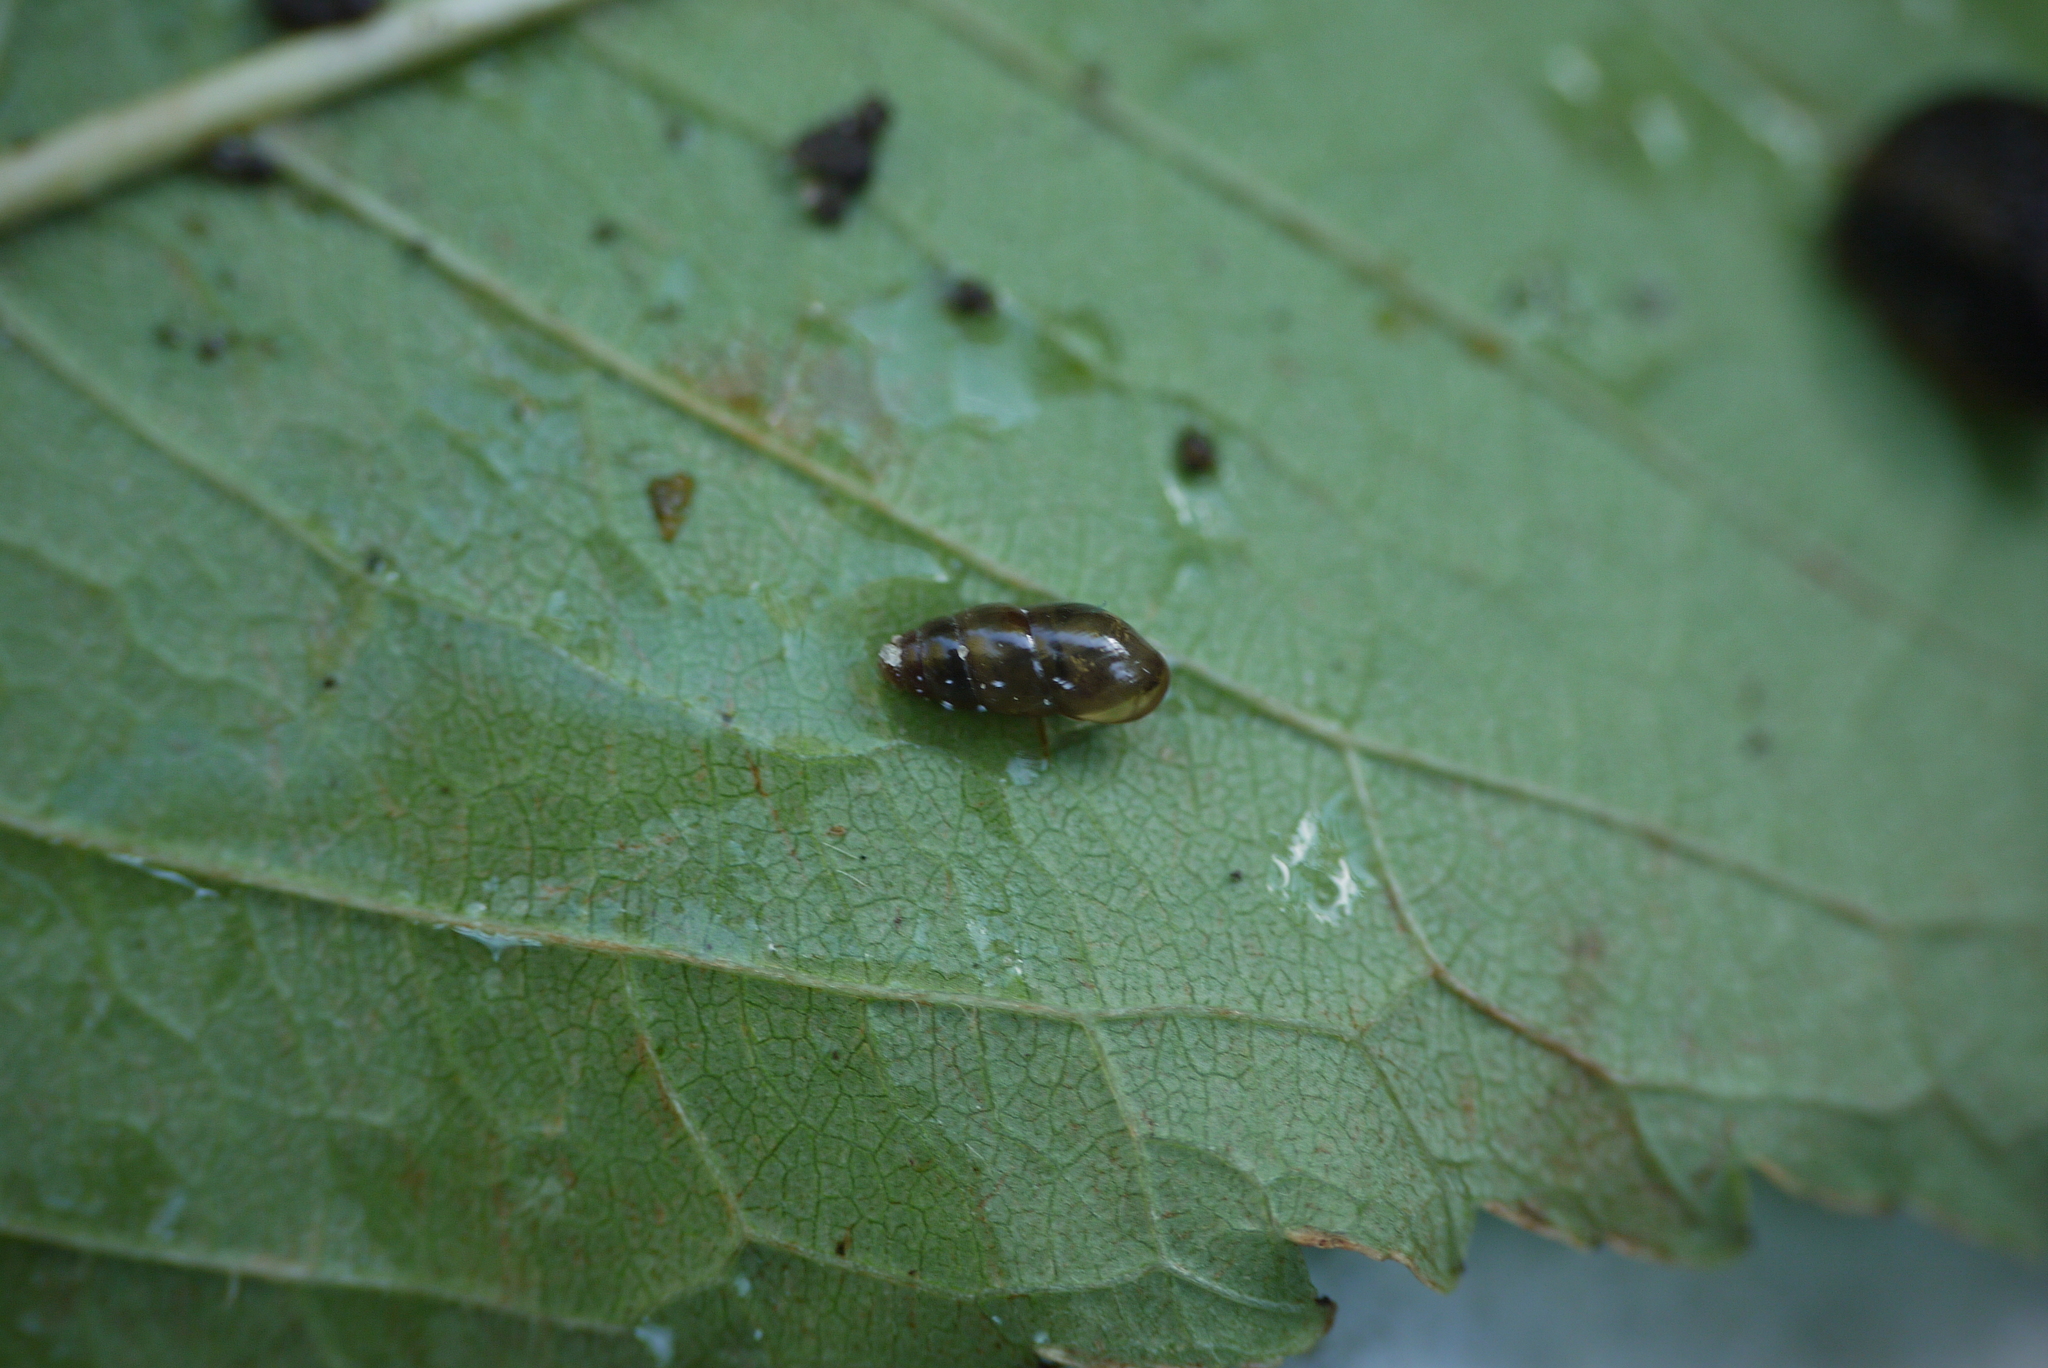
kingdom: Animalia
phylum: Mollusca
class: Gastropoda
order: Stylommatophora
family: Cochlicopidae
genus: Cochlicopa
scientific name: Cochlicopa lubrica
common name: Glossy pillar snail
